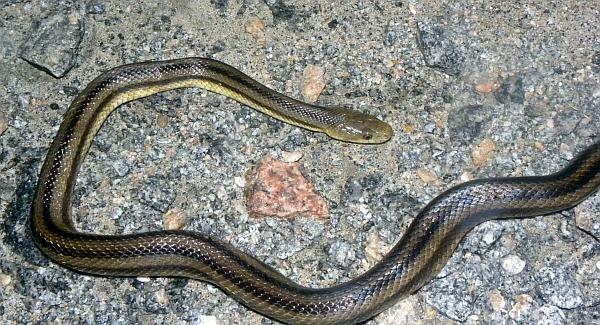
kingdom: Animalia
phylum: Chordata
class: Squamata
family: Colubridae
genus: Pantherophis
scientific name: Pantherophis alleghaniensis
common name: Eastern rat snake
